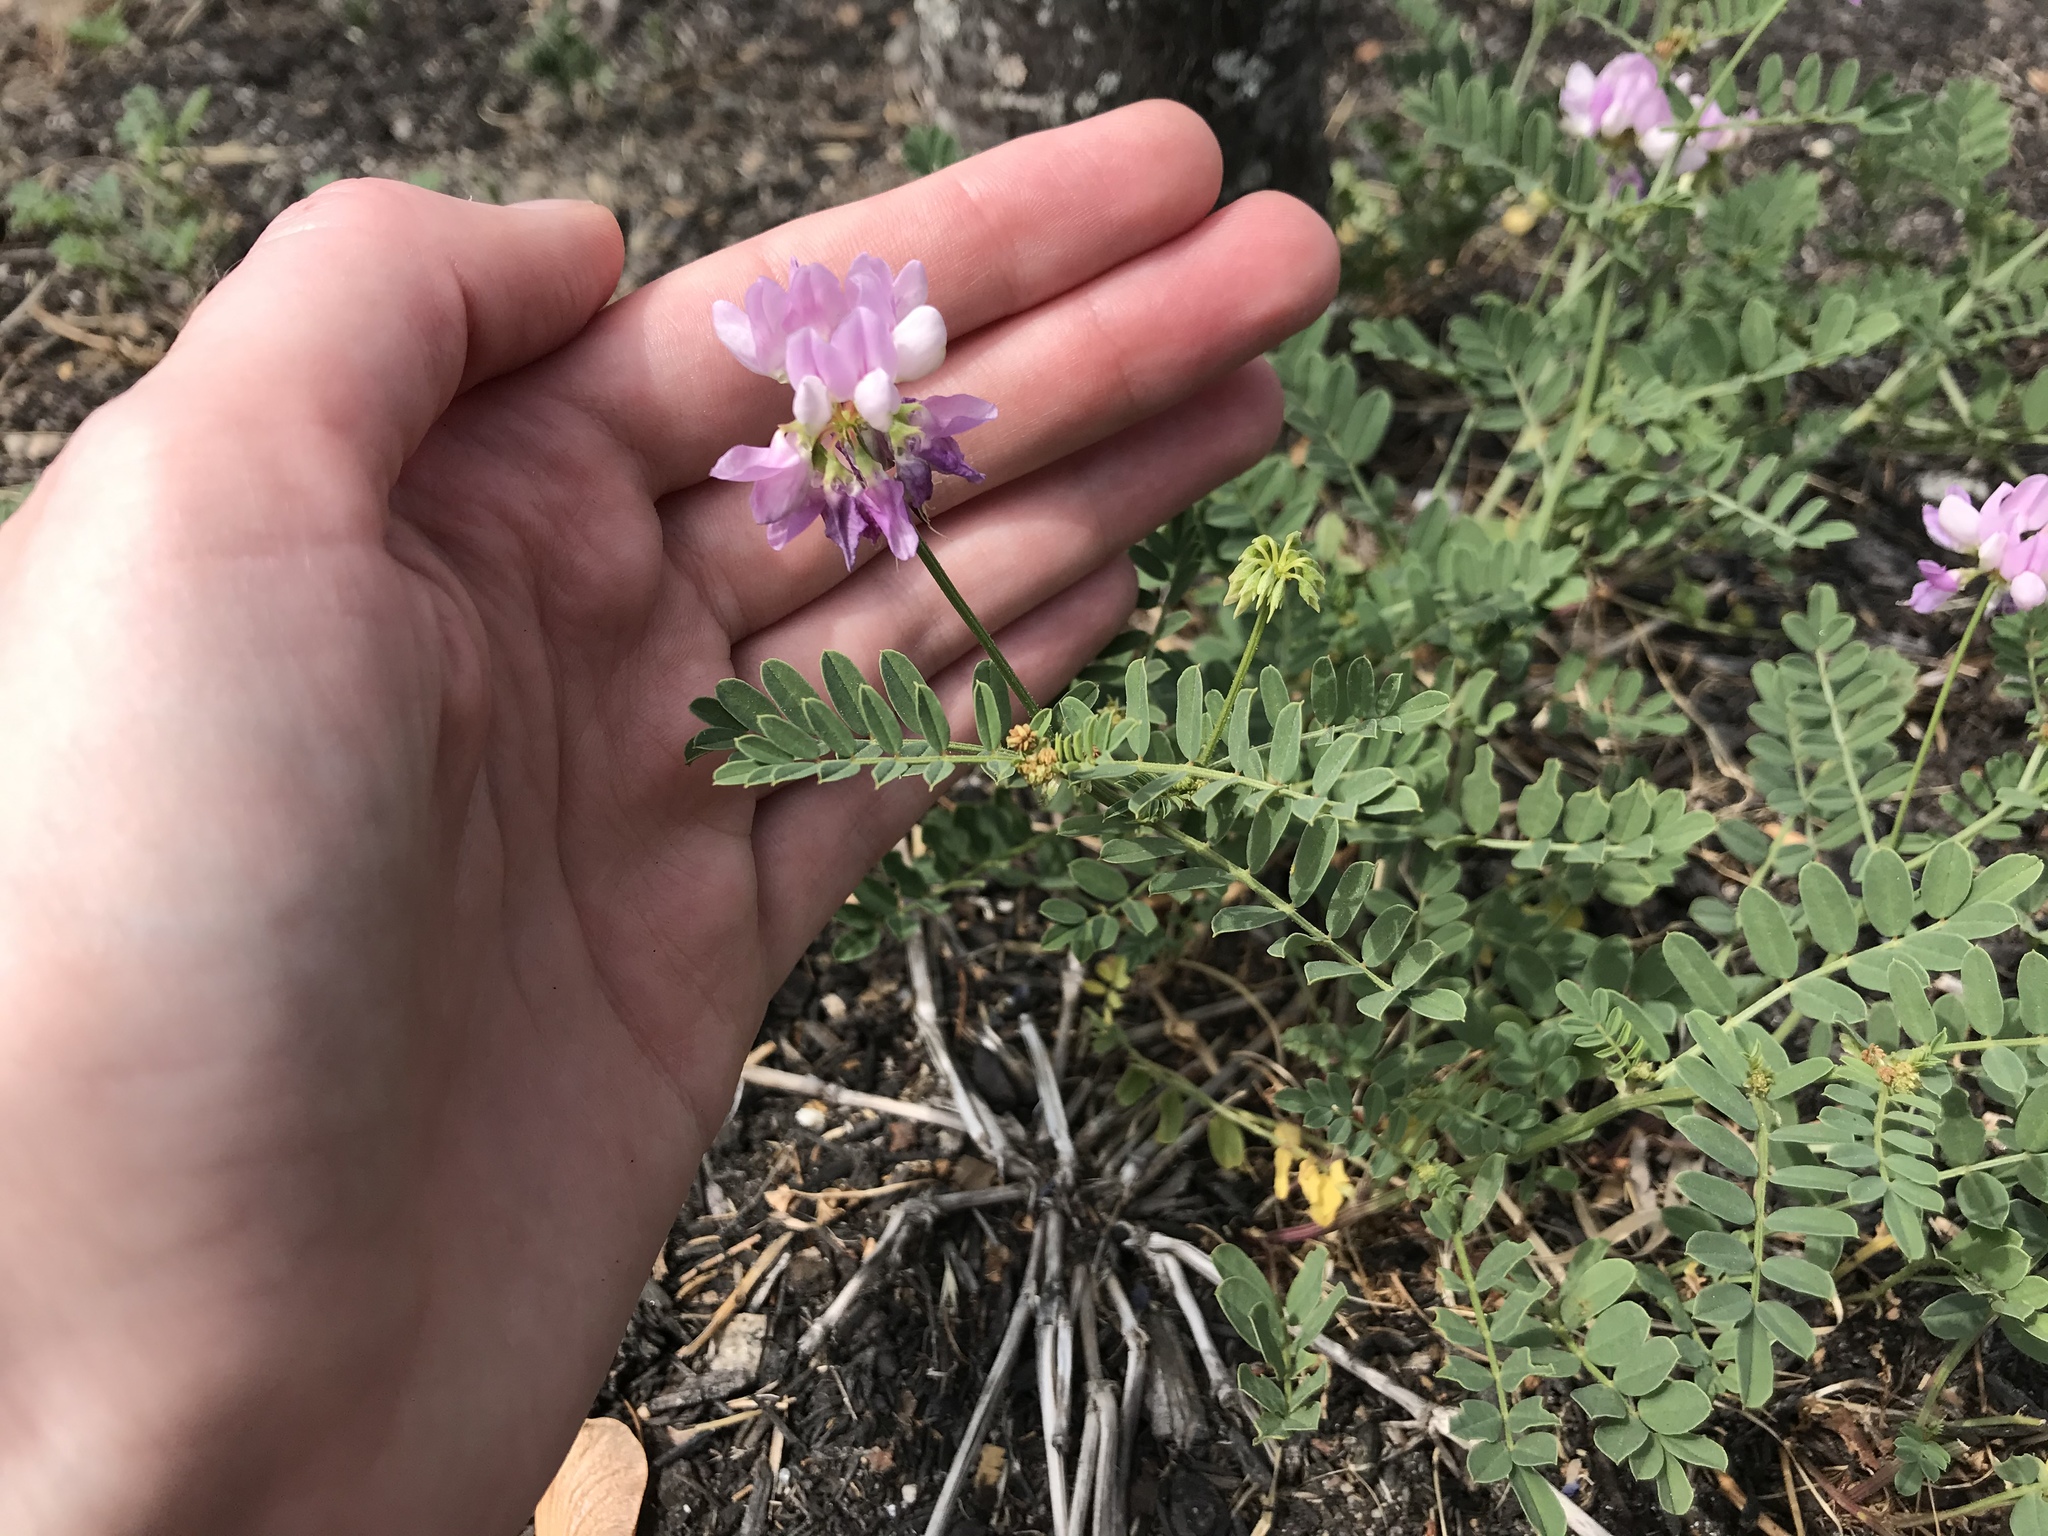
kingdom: Plantae
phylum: Tracheophyta
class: Magnoliopsida
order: Fabales
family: Fabaceae
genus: Coronilla
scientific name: Coronilla varia
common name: Crownvetch
